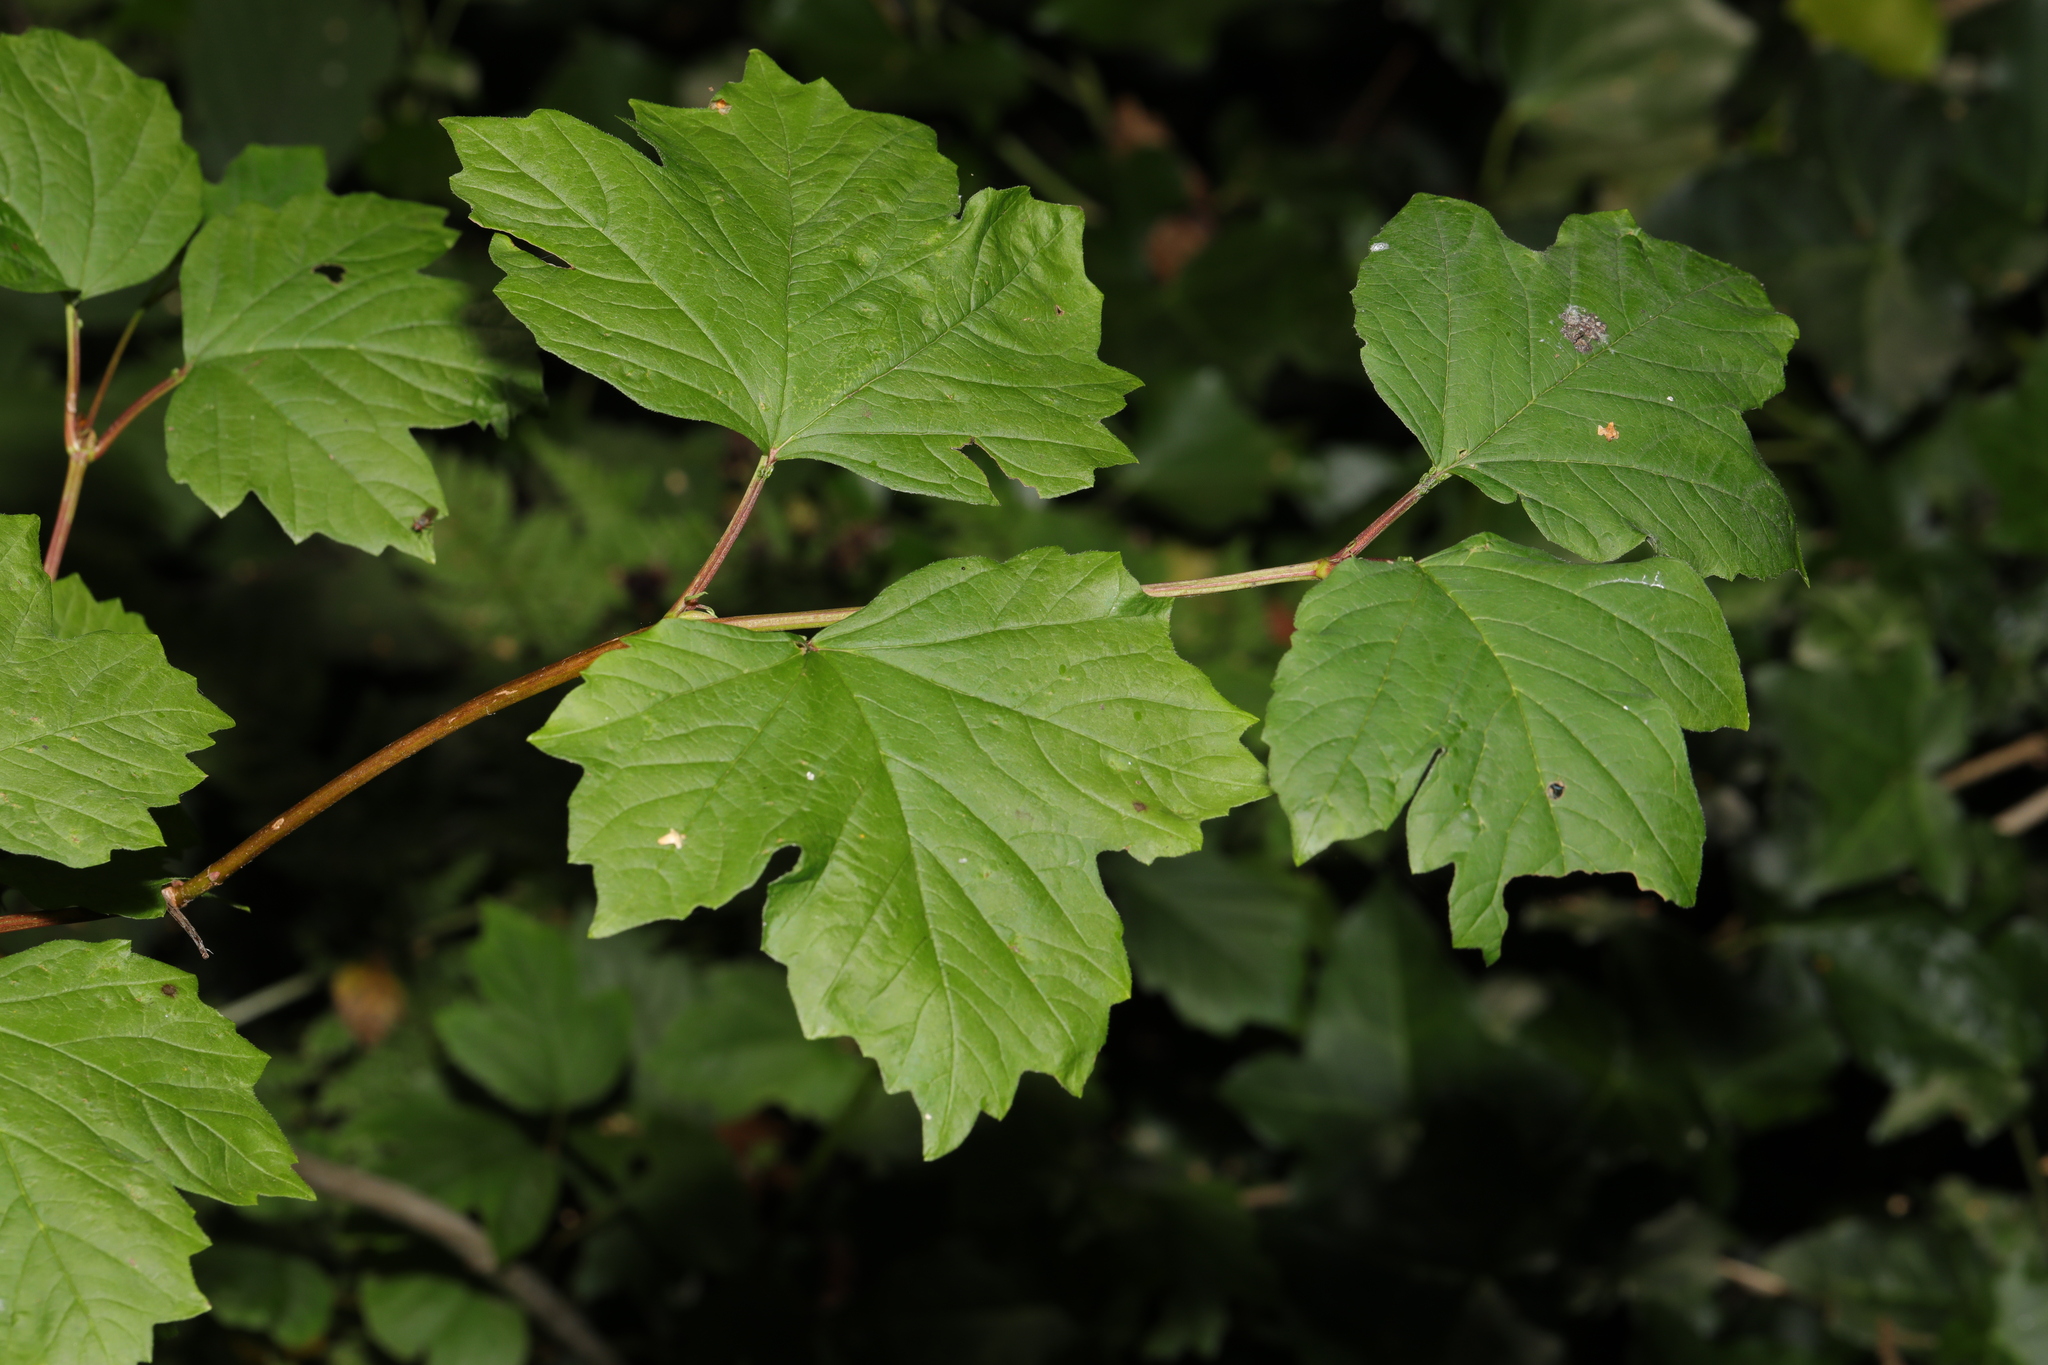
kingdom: Plantae
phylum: Tracheophyta
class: Magnoliopsida
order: Dipsacales
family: Viburnaceae
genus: Viburnum
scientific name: Viburnum opulus
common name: Guelder-rose
